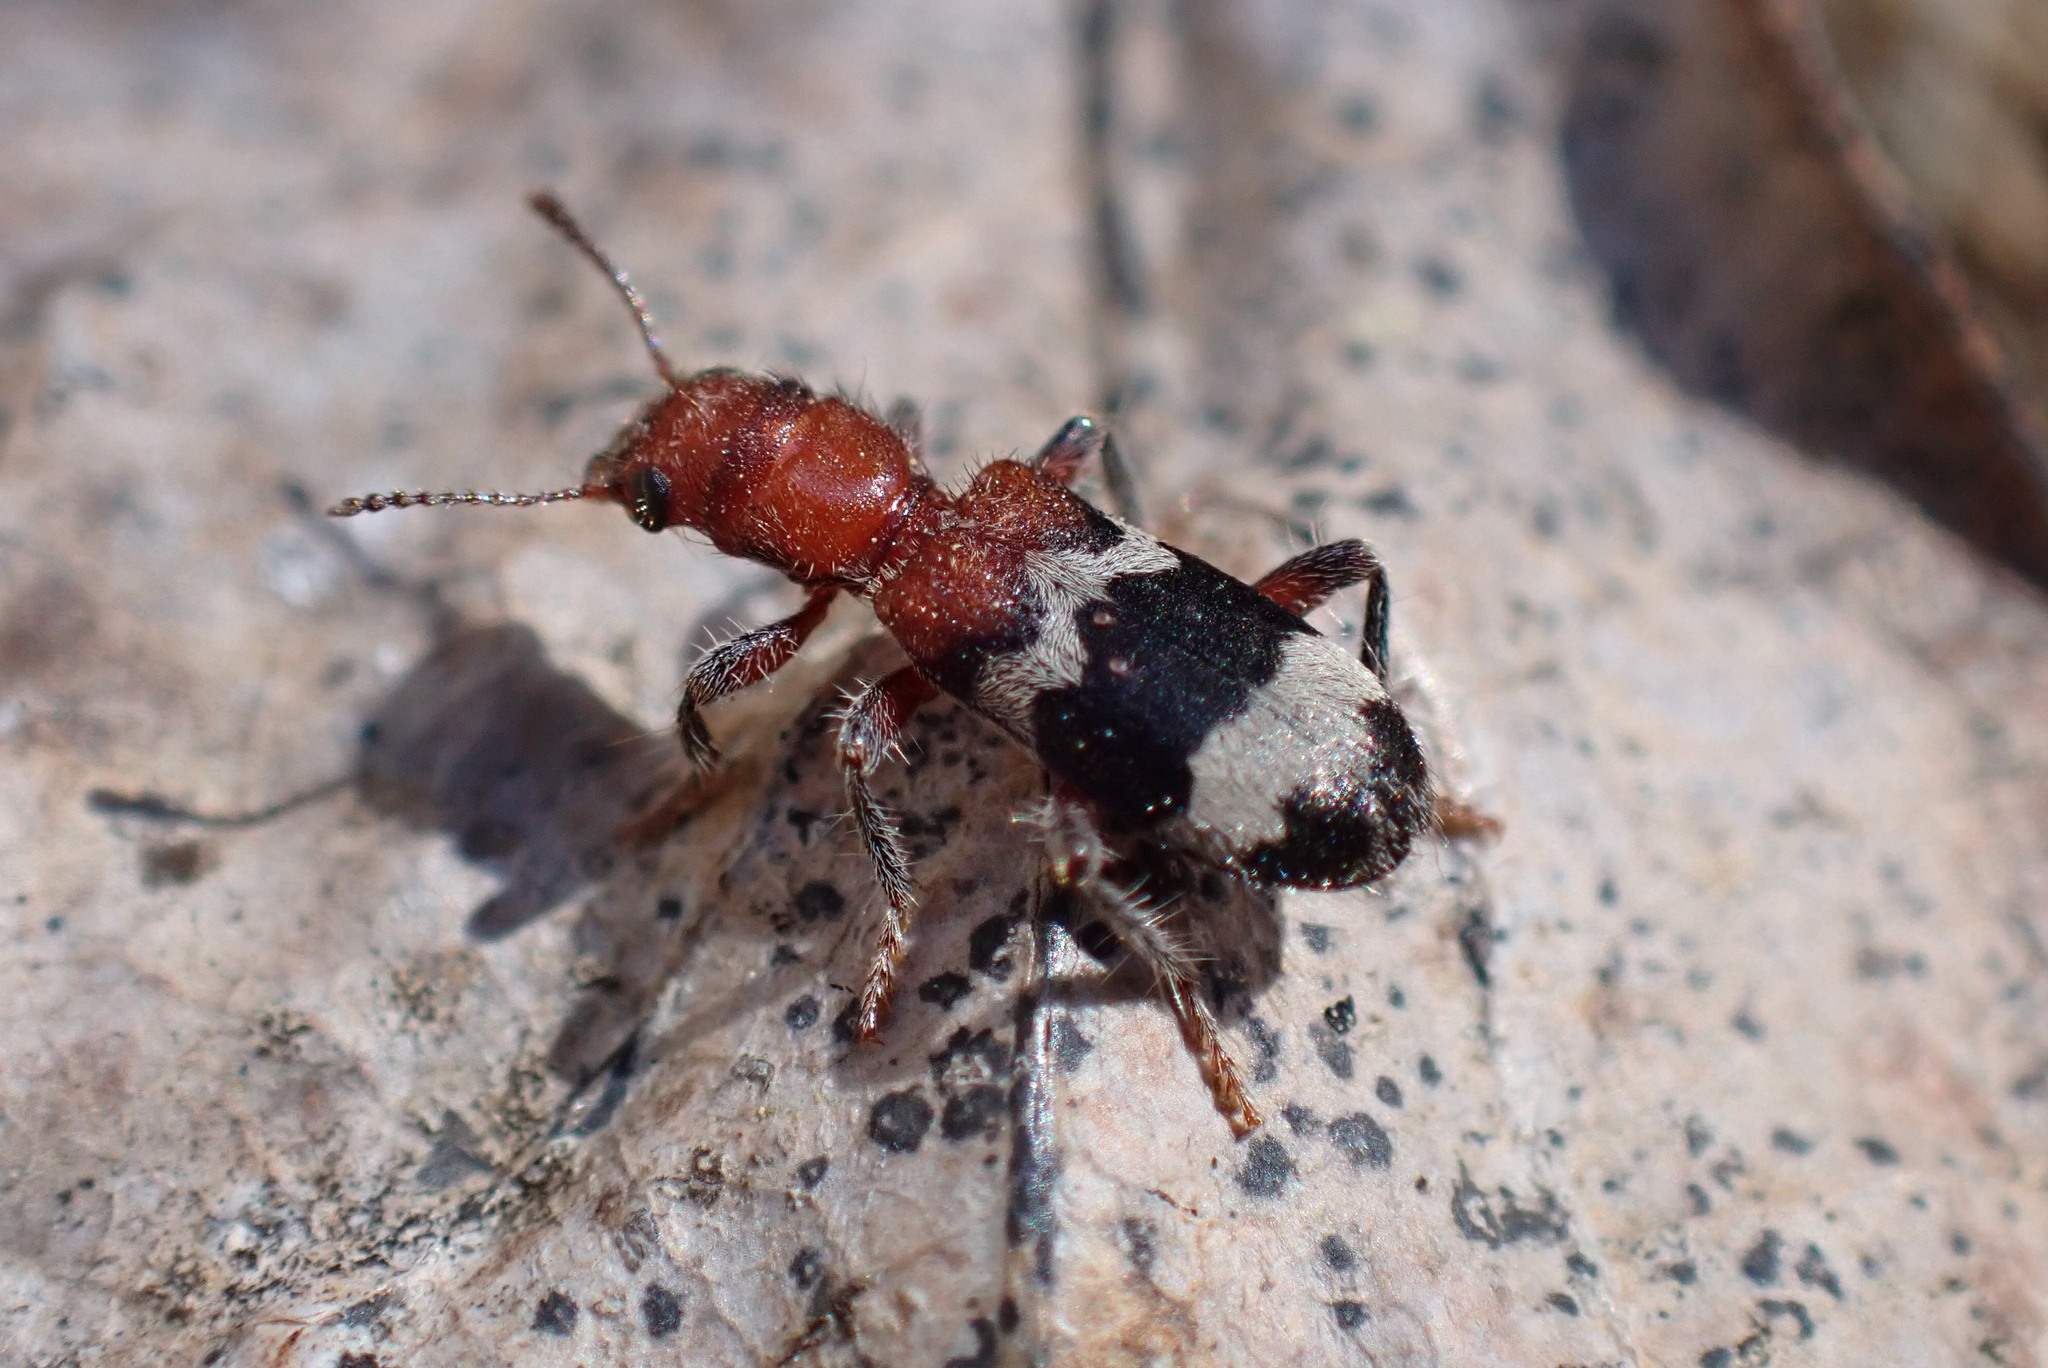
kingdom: Animalia
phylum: Arthropoda
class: Insecta
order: Coleoptera
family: Cleridae
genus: Thanasimus
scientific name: Thanasimus dubius
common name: Wavering checkered beetle
